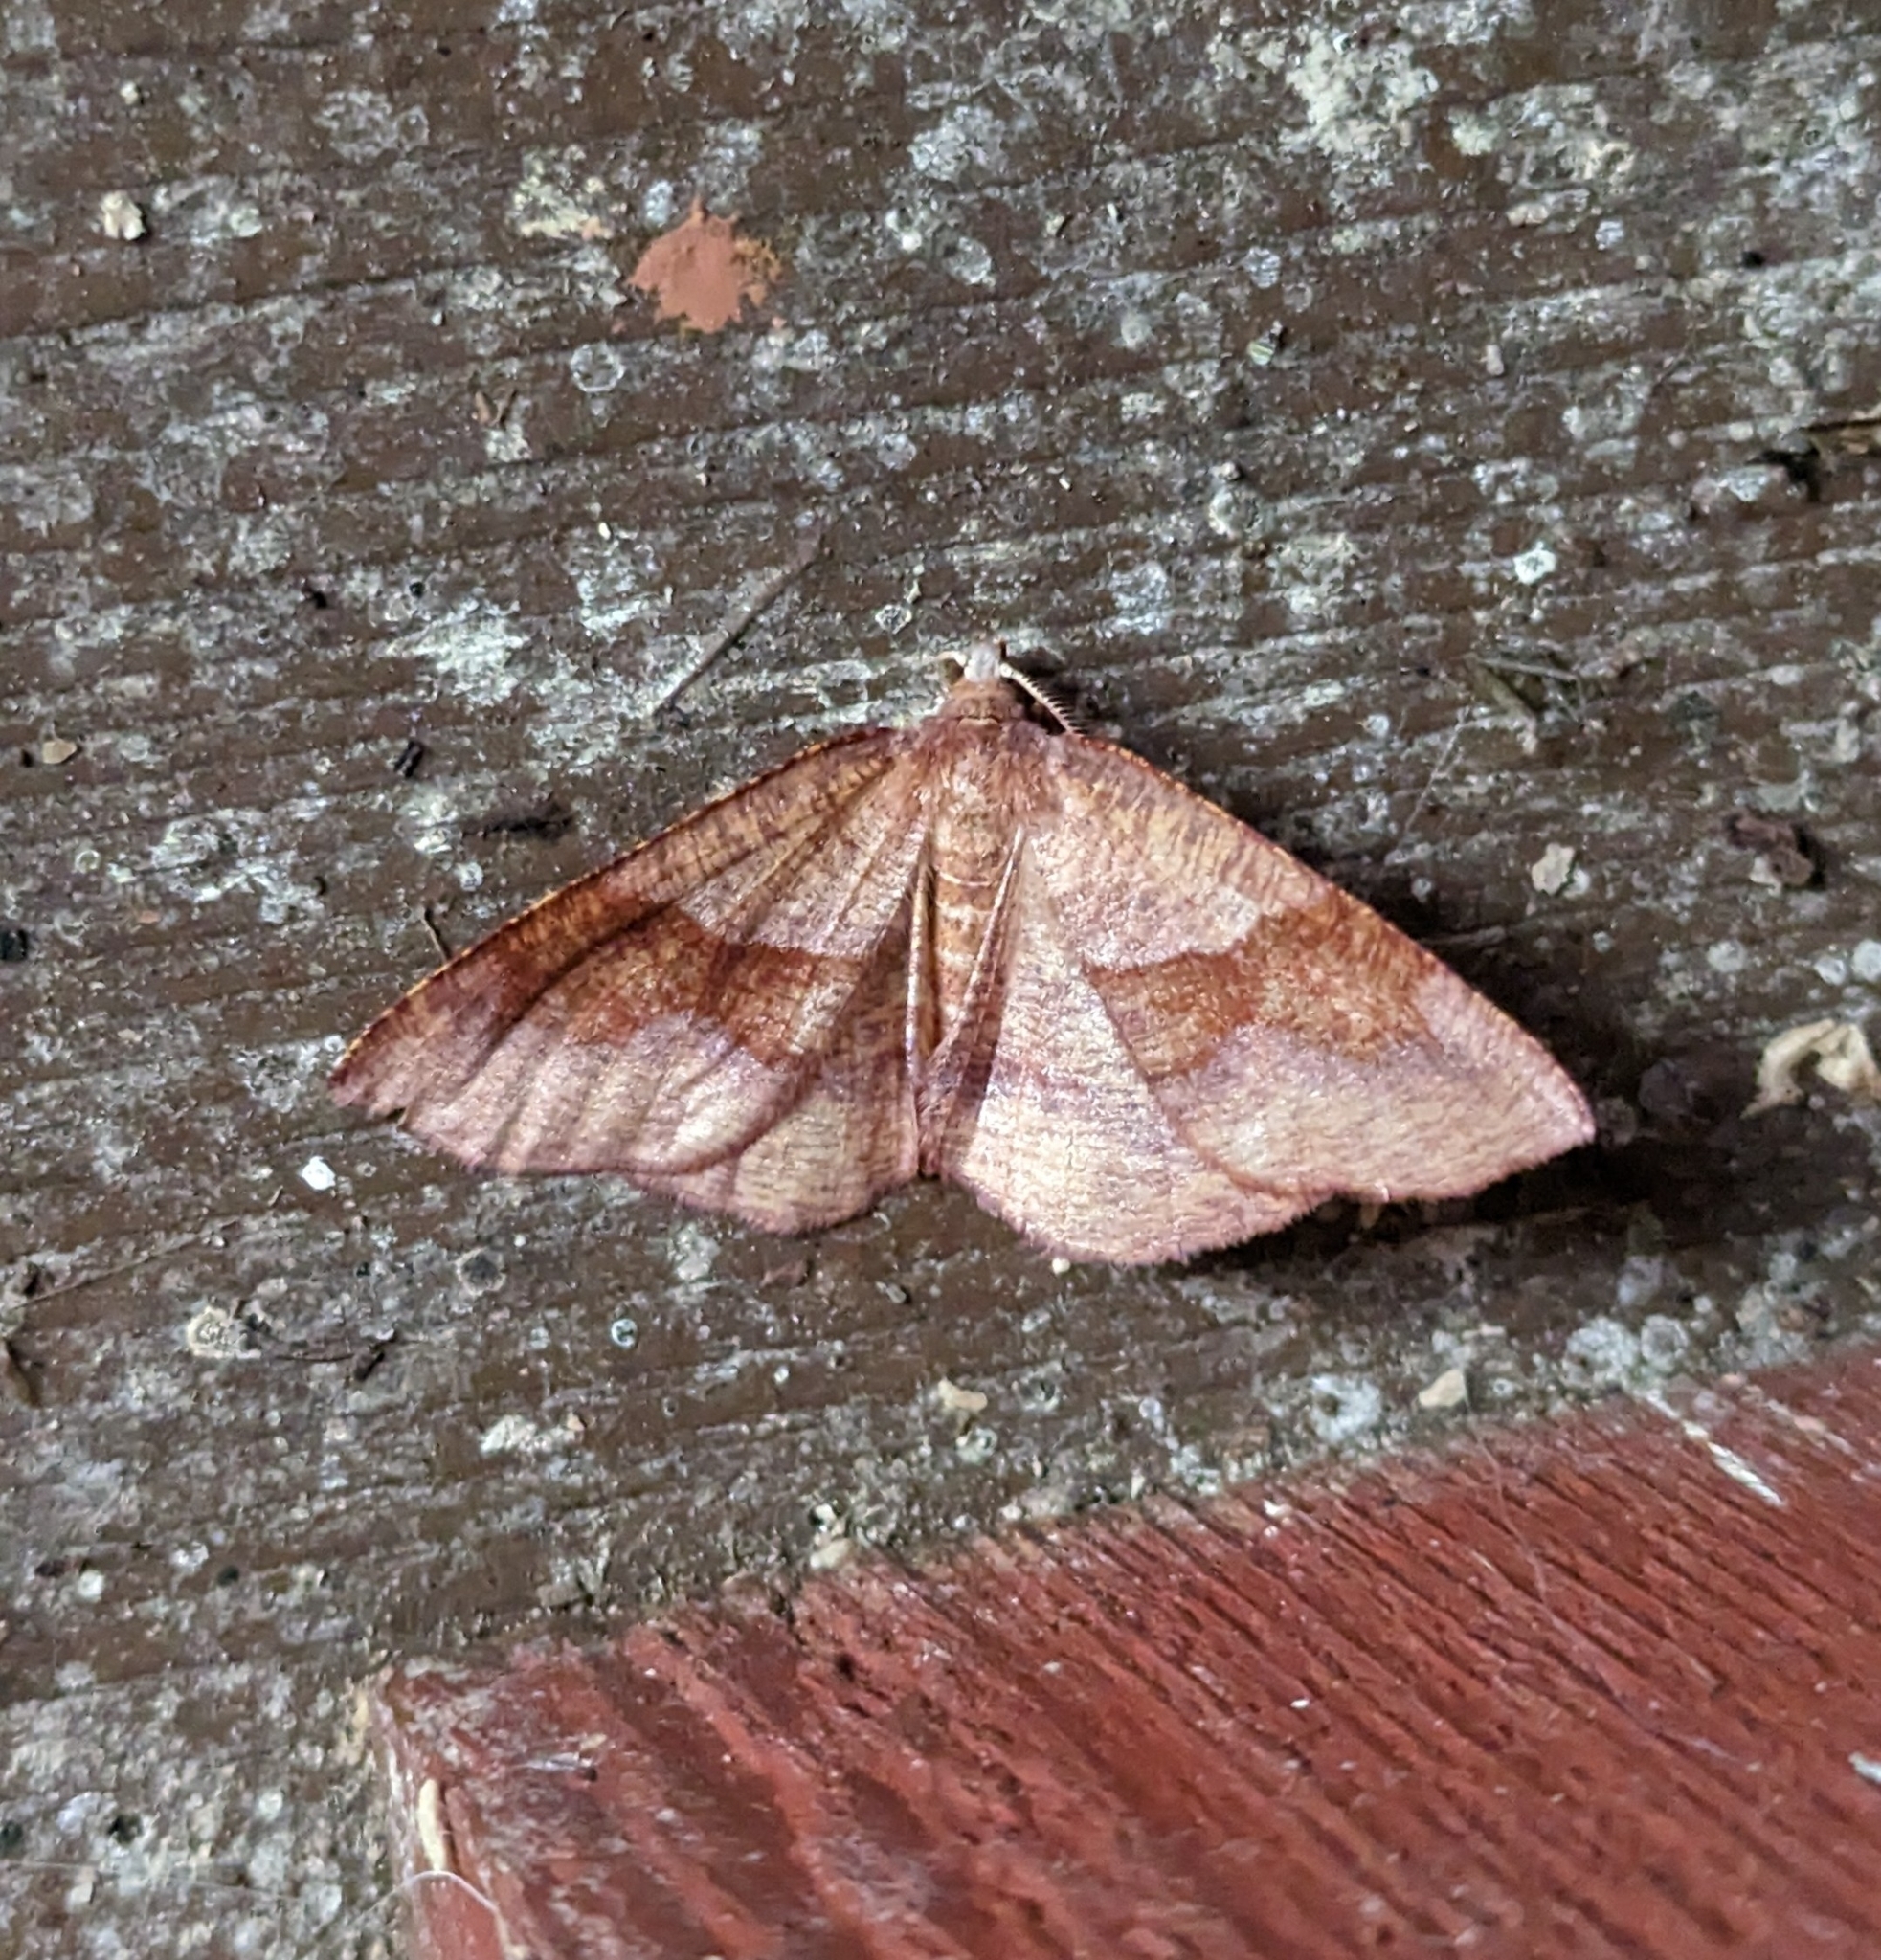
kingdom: Animalia
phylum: Arthropoda
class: Insecta
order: Lepidoptera
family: Geometridae
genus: Plagodis
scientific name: Plagodis pulveraria
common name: Barred umber
